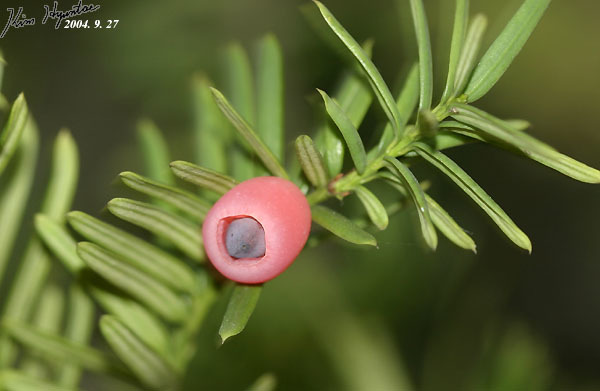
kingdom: Plantae
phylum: Tracheophyta
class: Pinopsida
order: Pinales
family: Taxaceae
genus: Taxus
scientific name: Taxus cuspidata
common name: Japanese yew
